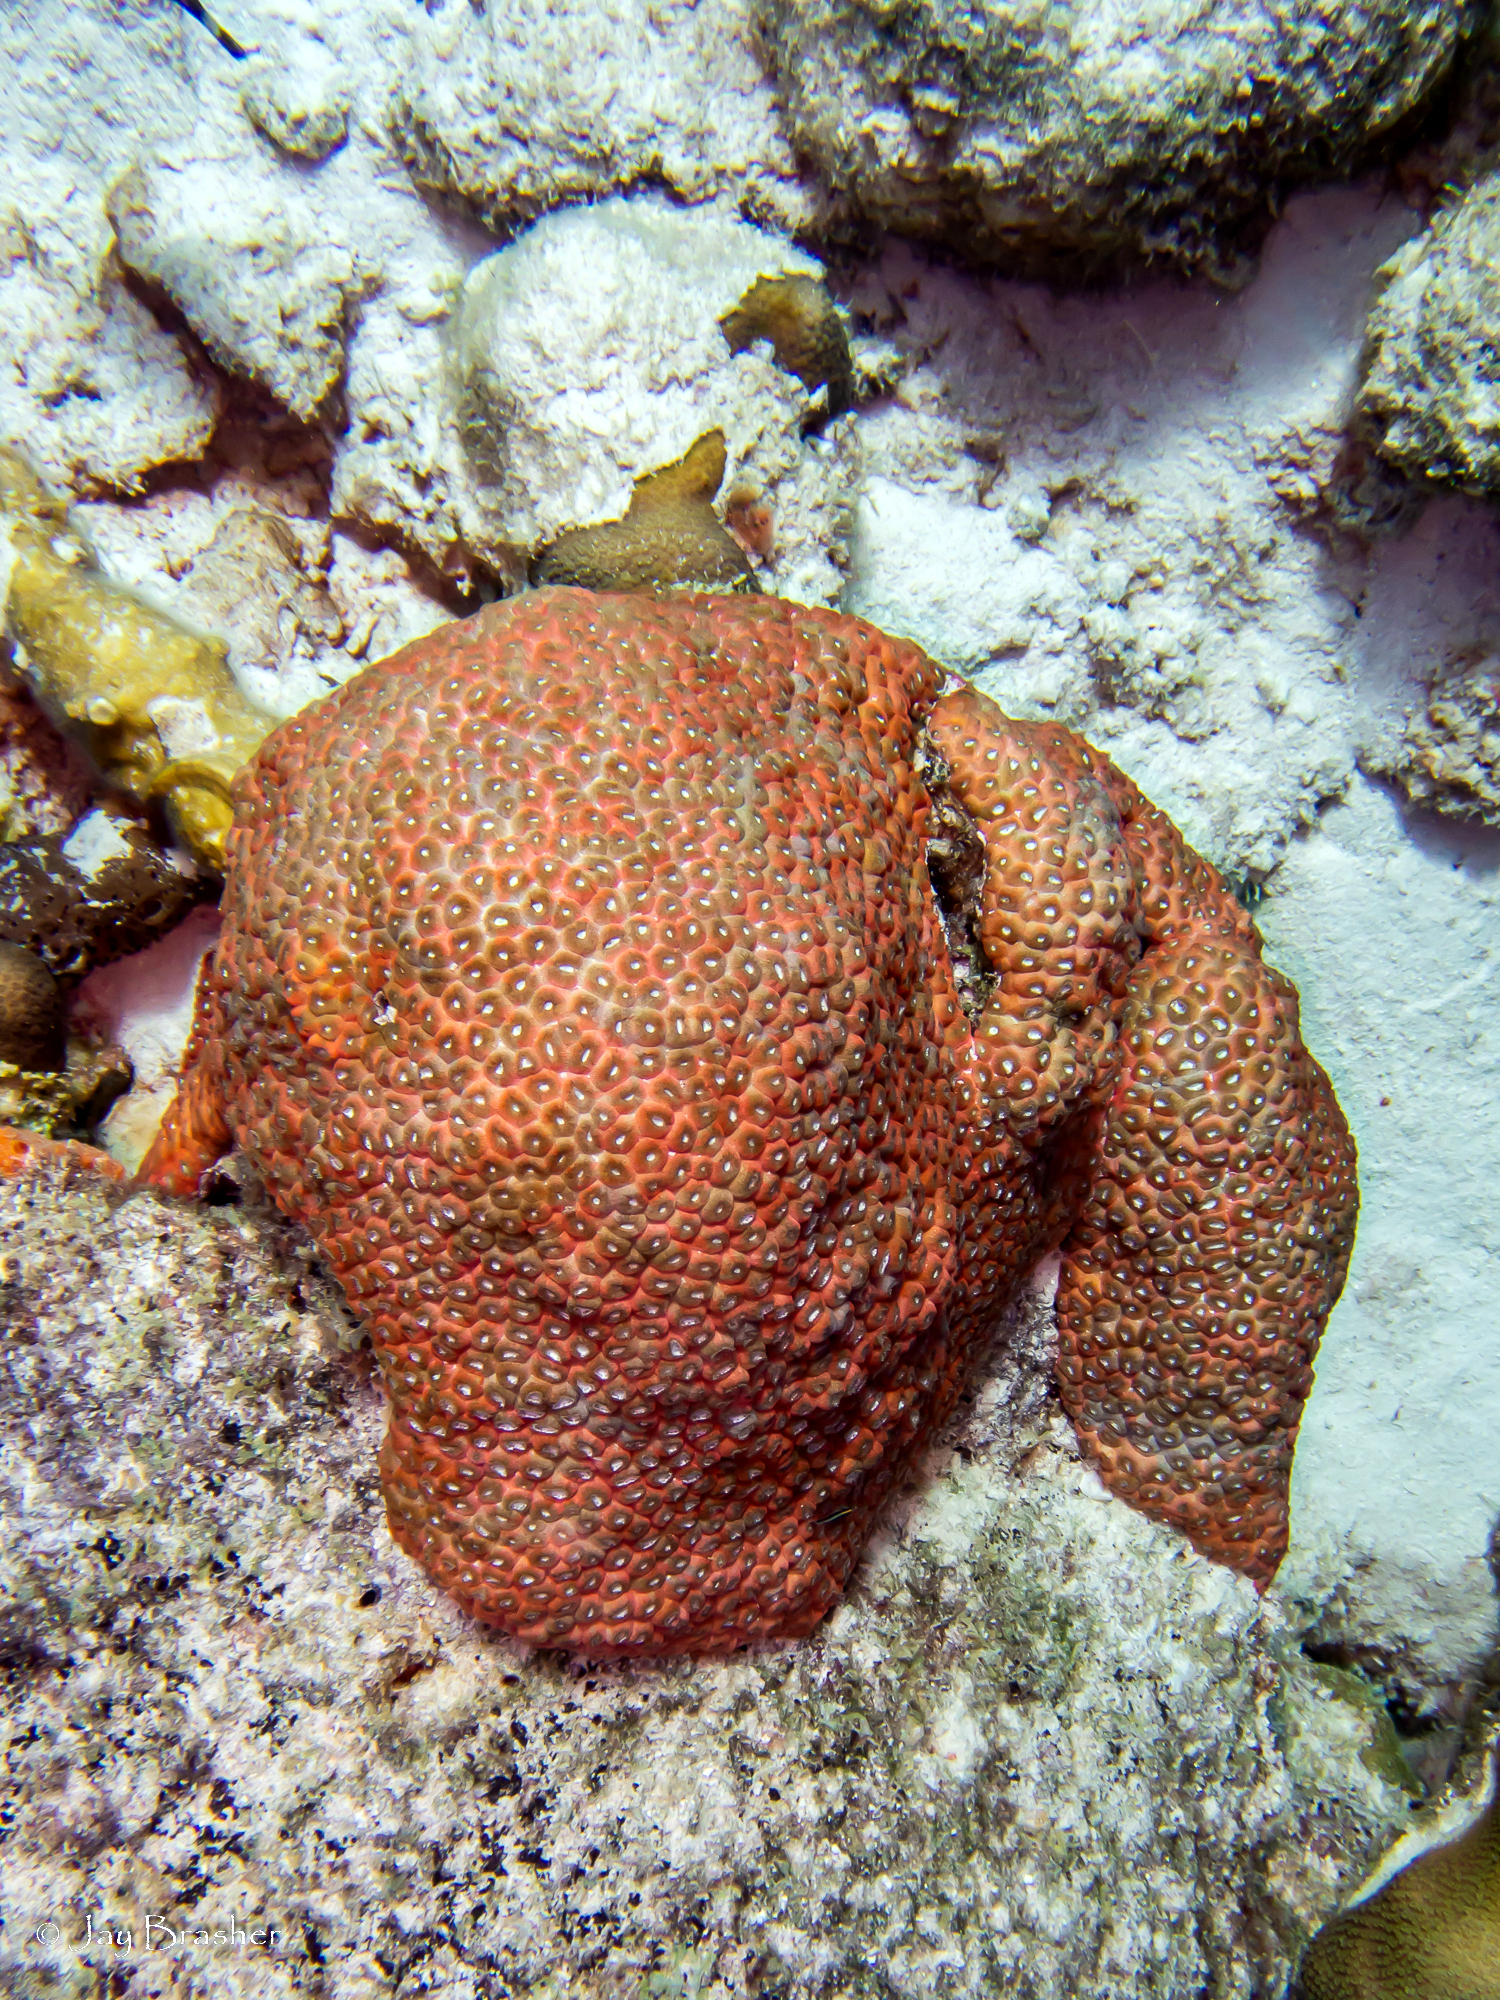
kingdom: Animalia
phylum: Cnidaria
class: Anthozoa
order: Scleractinia
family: Montastraeidae
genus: Montastraea
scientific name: Montastraea cavernosa
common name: Great star coral
